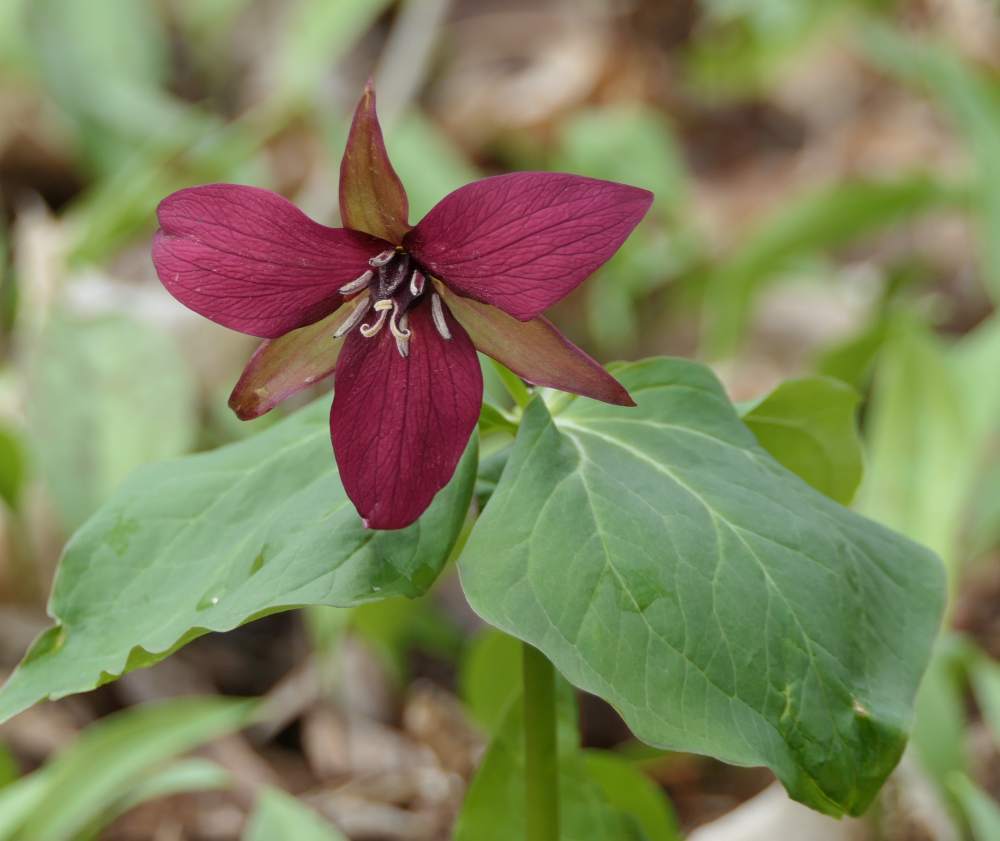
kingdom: Plantae
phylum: Tracheophyta
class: Liliopsida
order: Liliales
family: Melanthiaceae
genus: Trillium
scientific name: Trillium erectum
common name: Purple trillium
